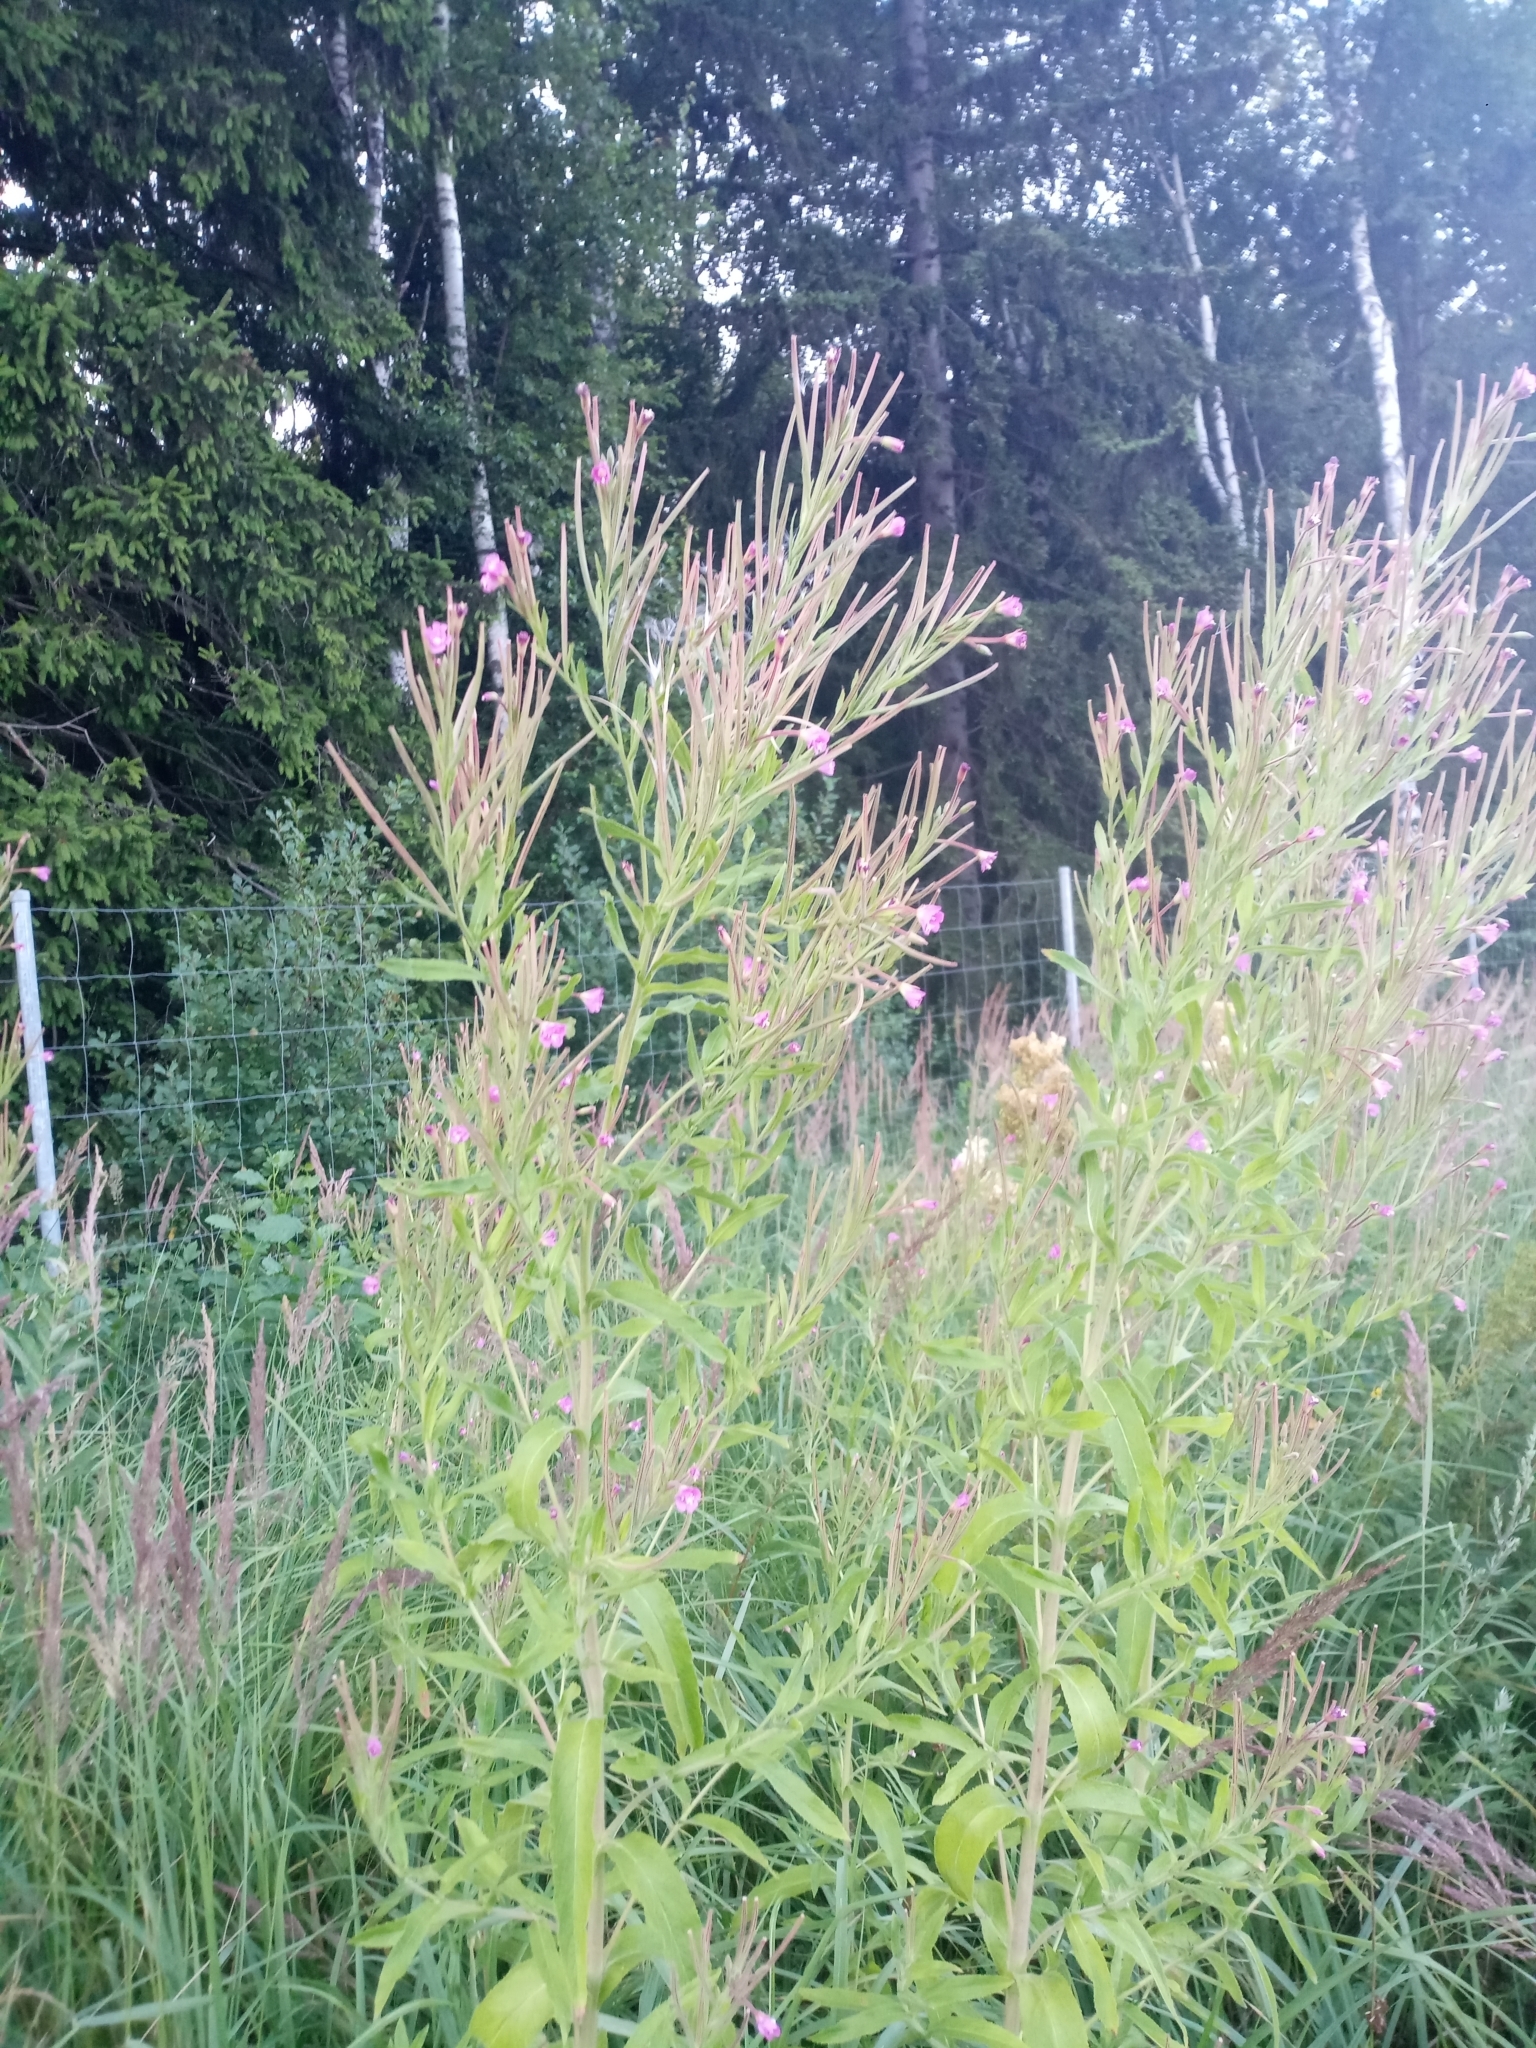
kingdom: Plantae
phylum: Tracheophyta
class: Magnoliopsida
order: Myrtales
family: Onagraceae
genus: Epilobium
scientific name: Epilobium hirsutum
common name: Great willowherb
